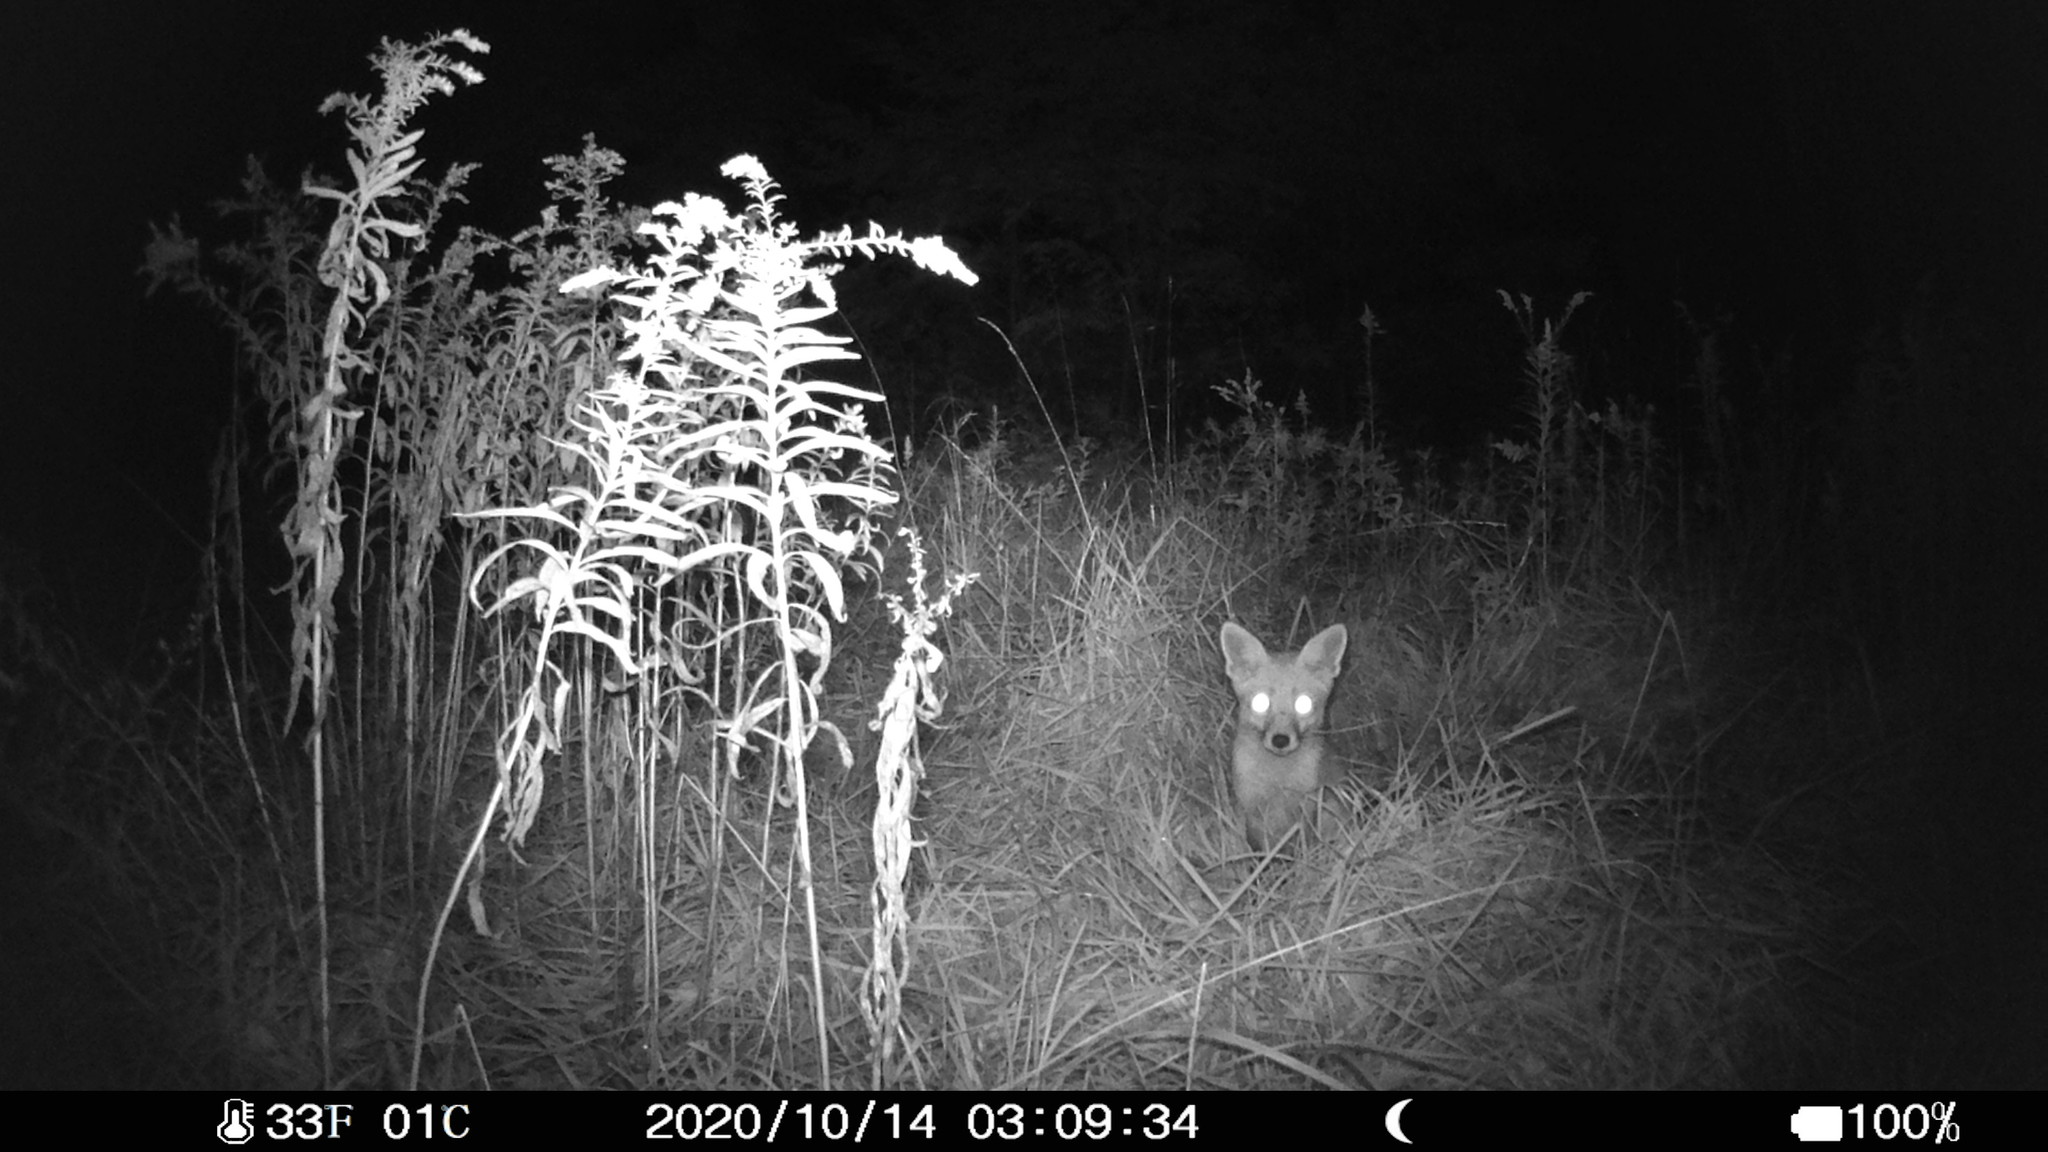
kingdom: Animalia
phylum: Chordata
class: Mammalia
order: Carnivora
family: Canidae
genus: Vulpes
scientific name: Vulpes vulpes
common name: Red fox
